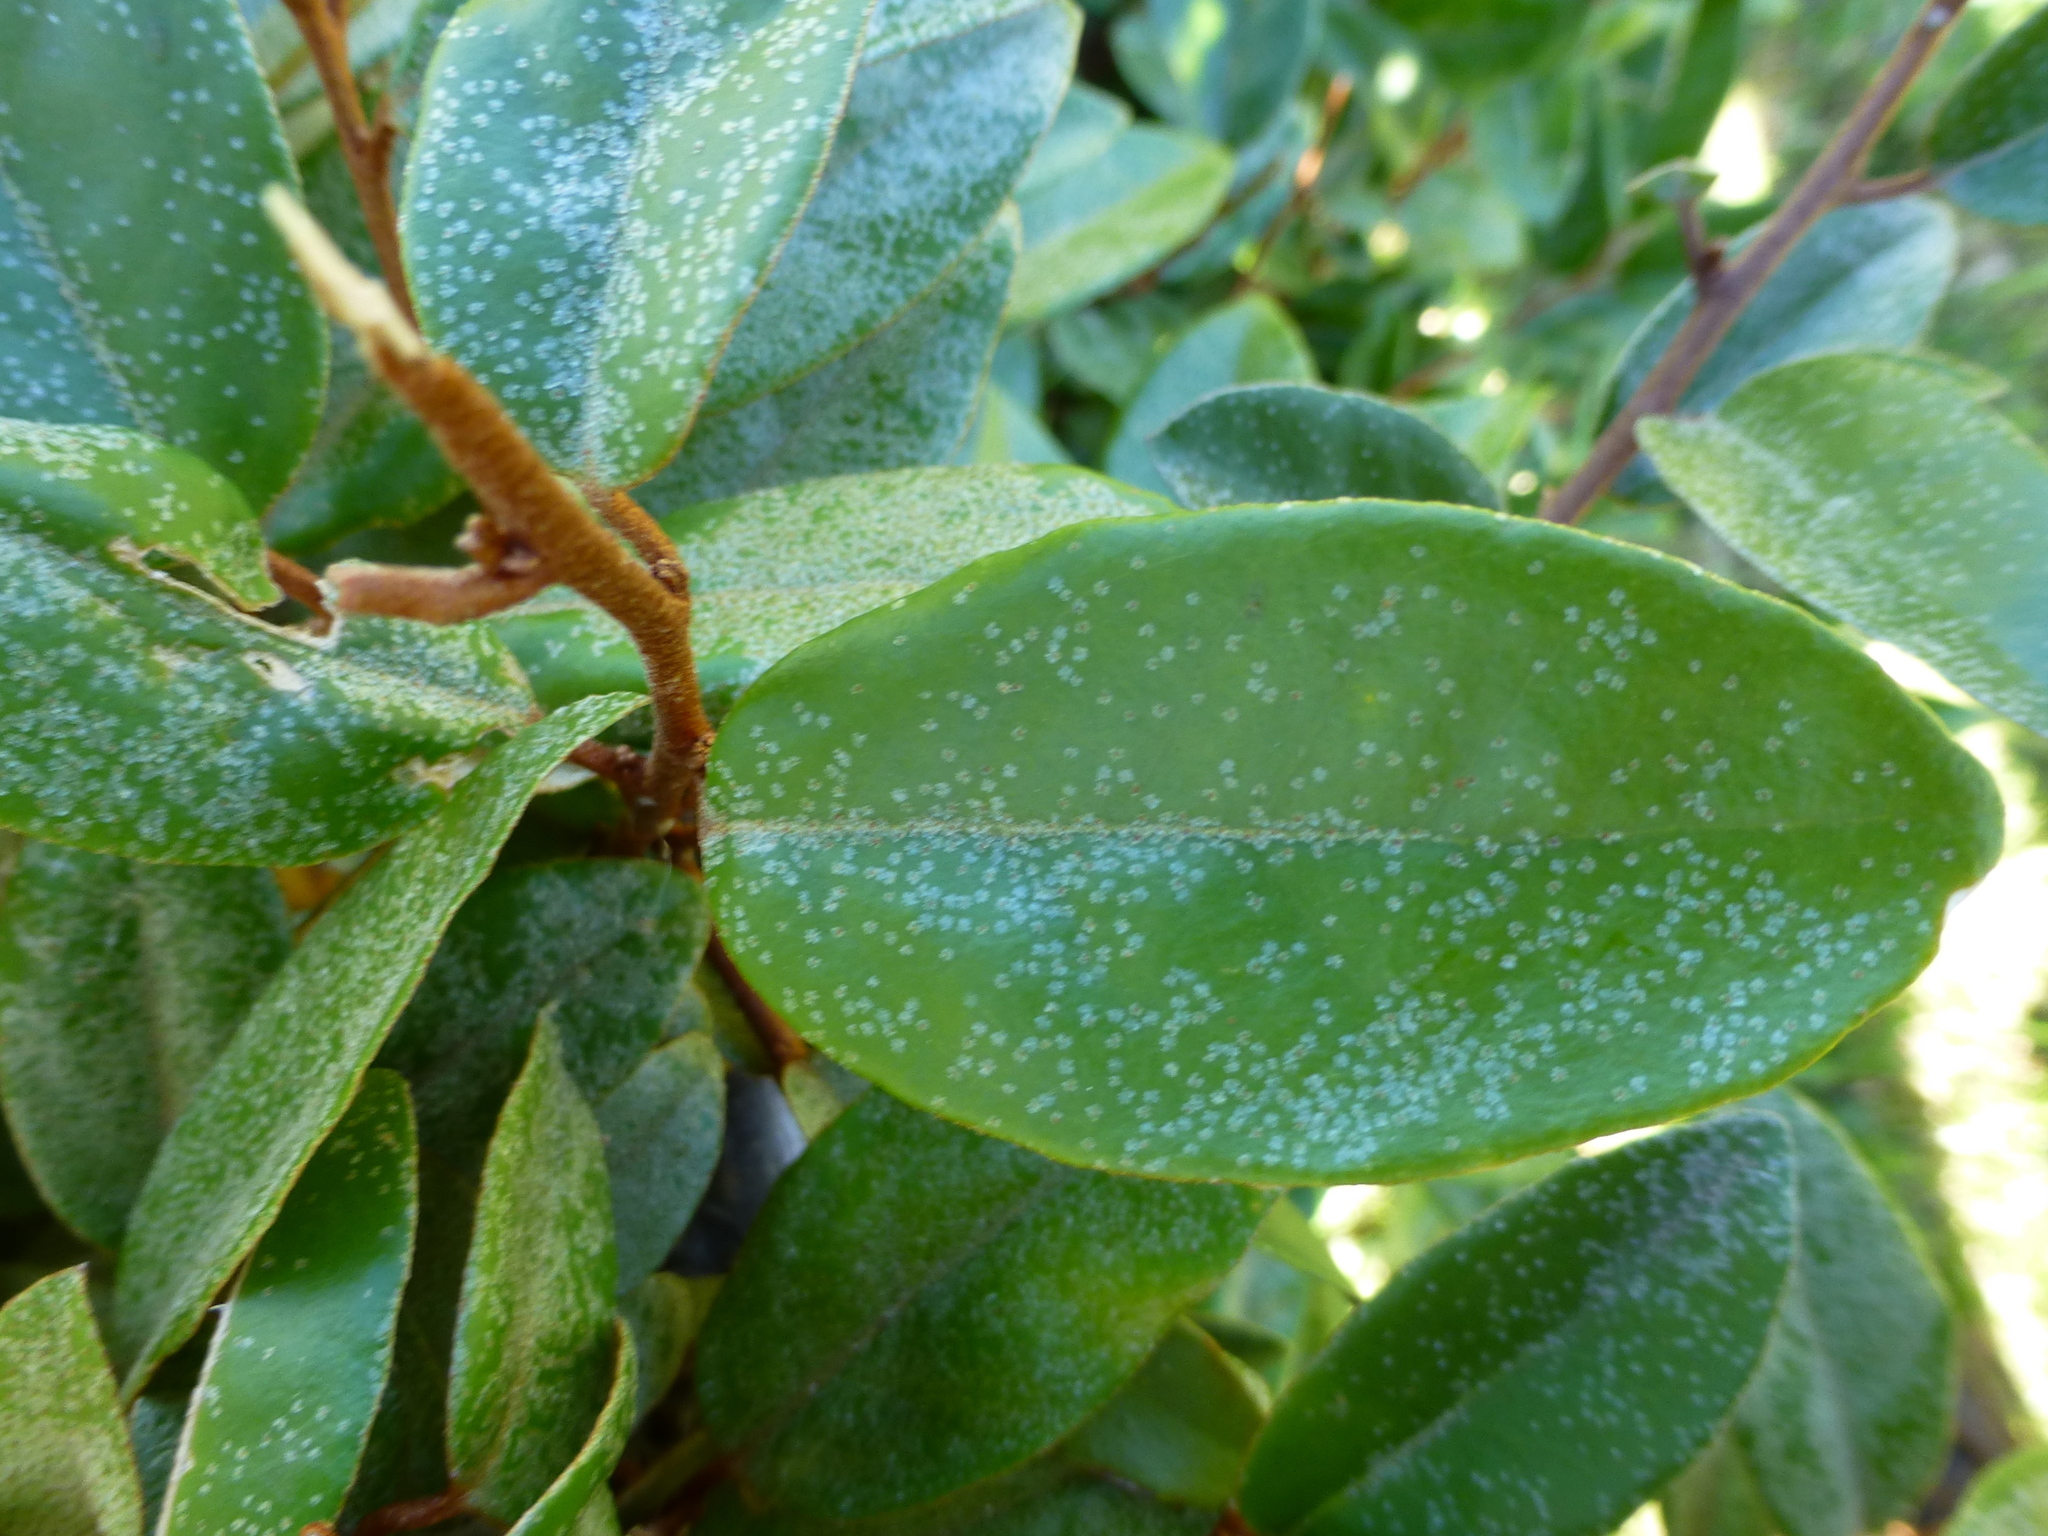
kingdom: Plantae
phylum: Tracheophyta
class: Magnoliopsida
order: Rosales
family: Elaeagnaceae
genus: Elaeagnus
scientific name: Elaeagnus reflexa
